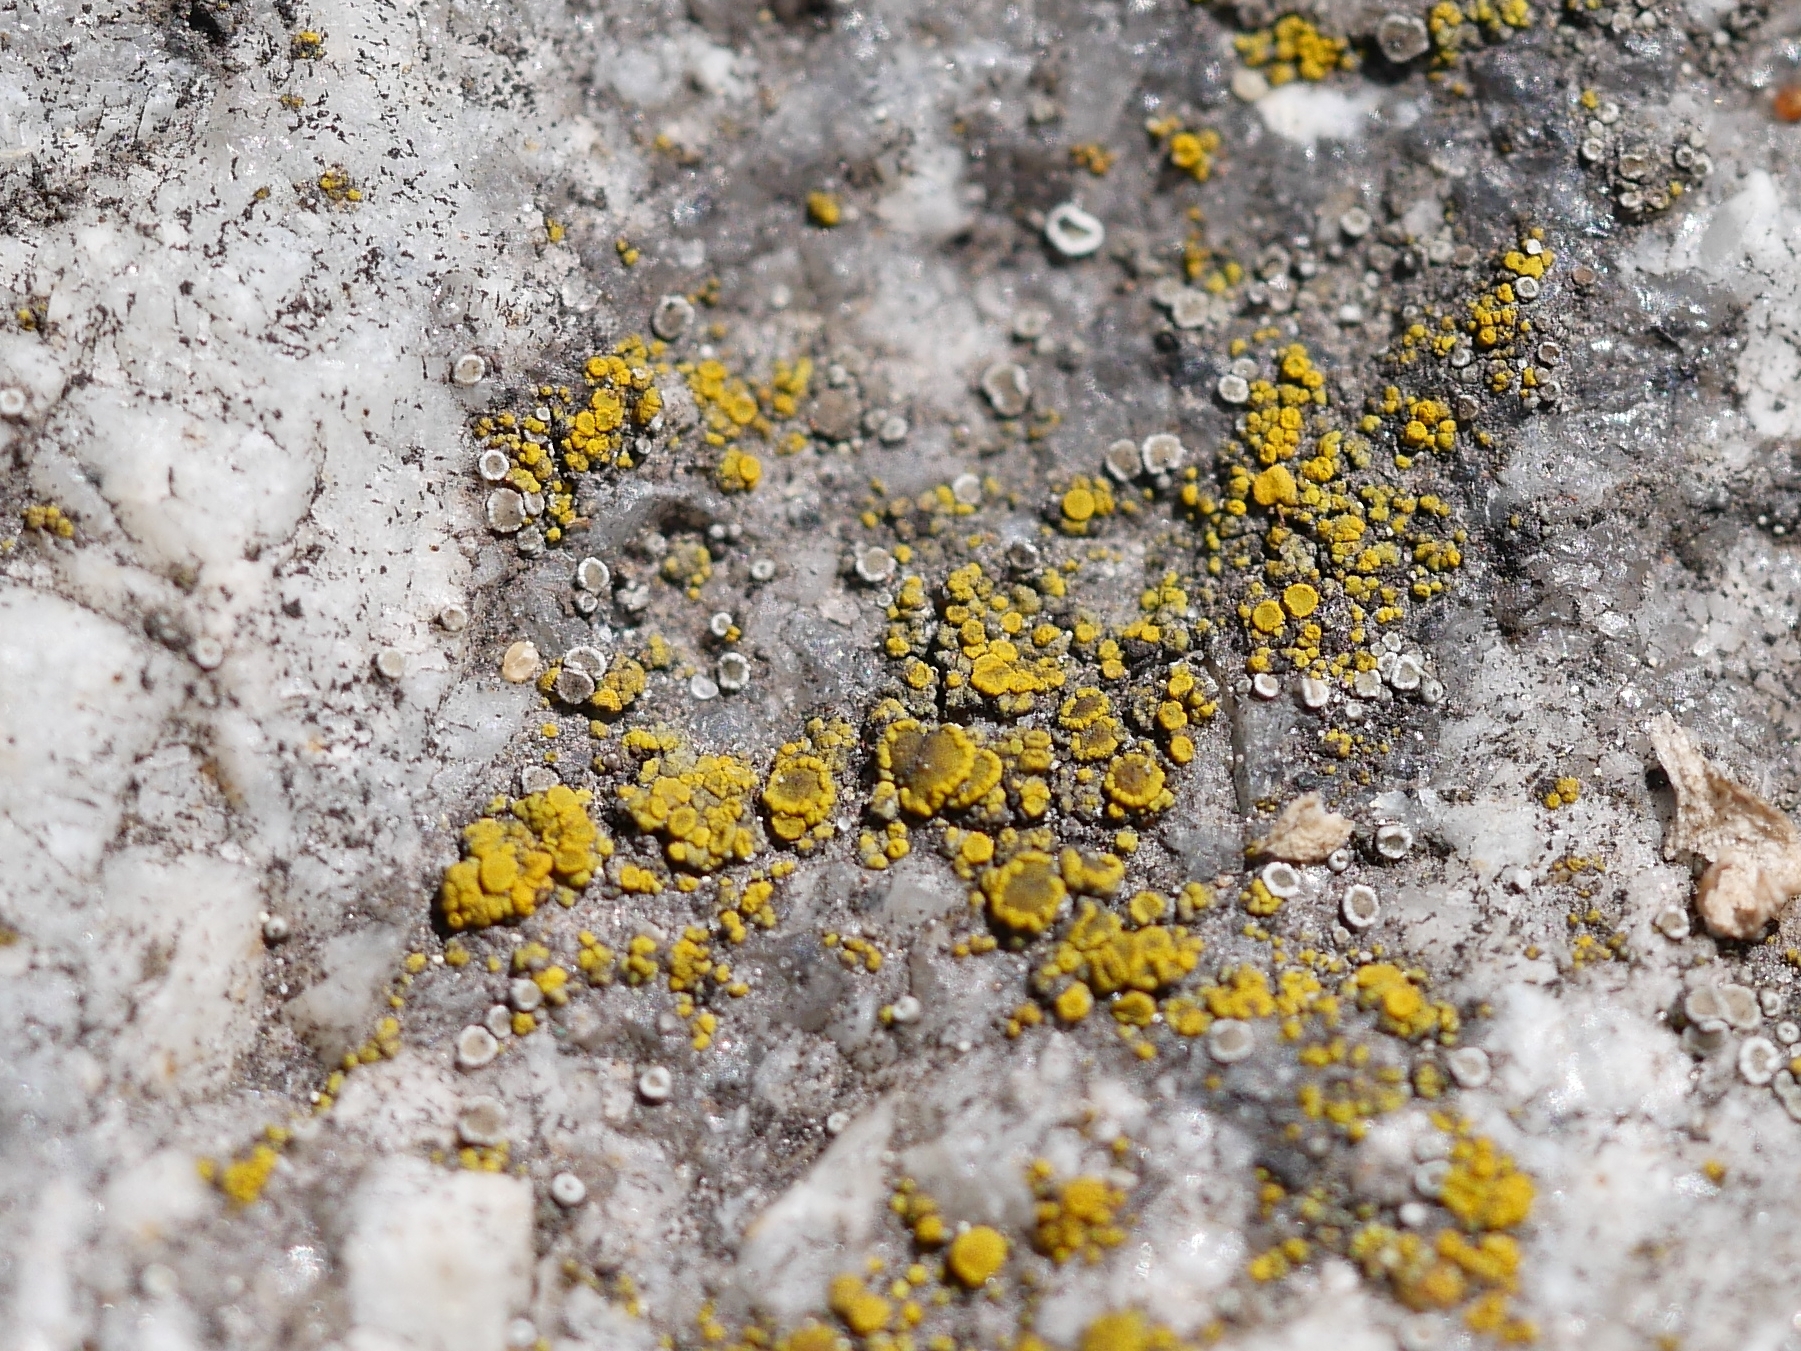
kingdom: Fungi
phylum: Ascomycota
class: Candelariomycetes
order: Candelariales
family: Candelariaceae
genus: Candelariella
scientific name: Candelariella vitellina
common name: Common goldspeck
